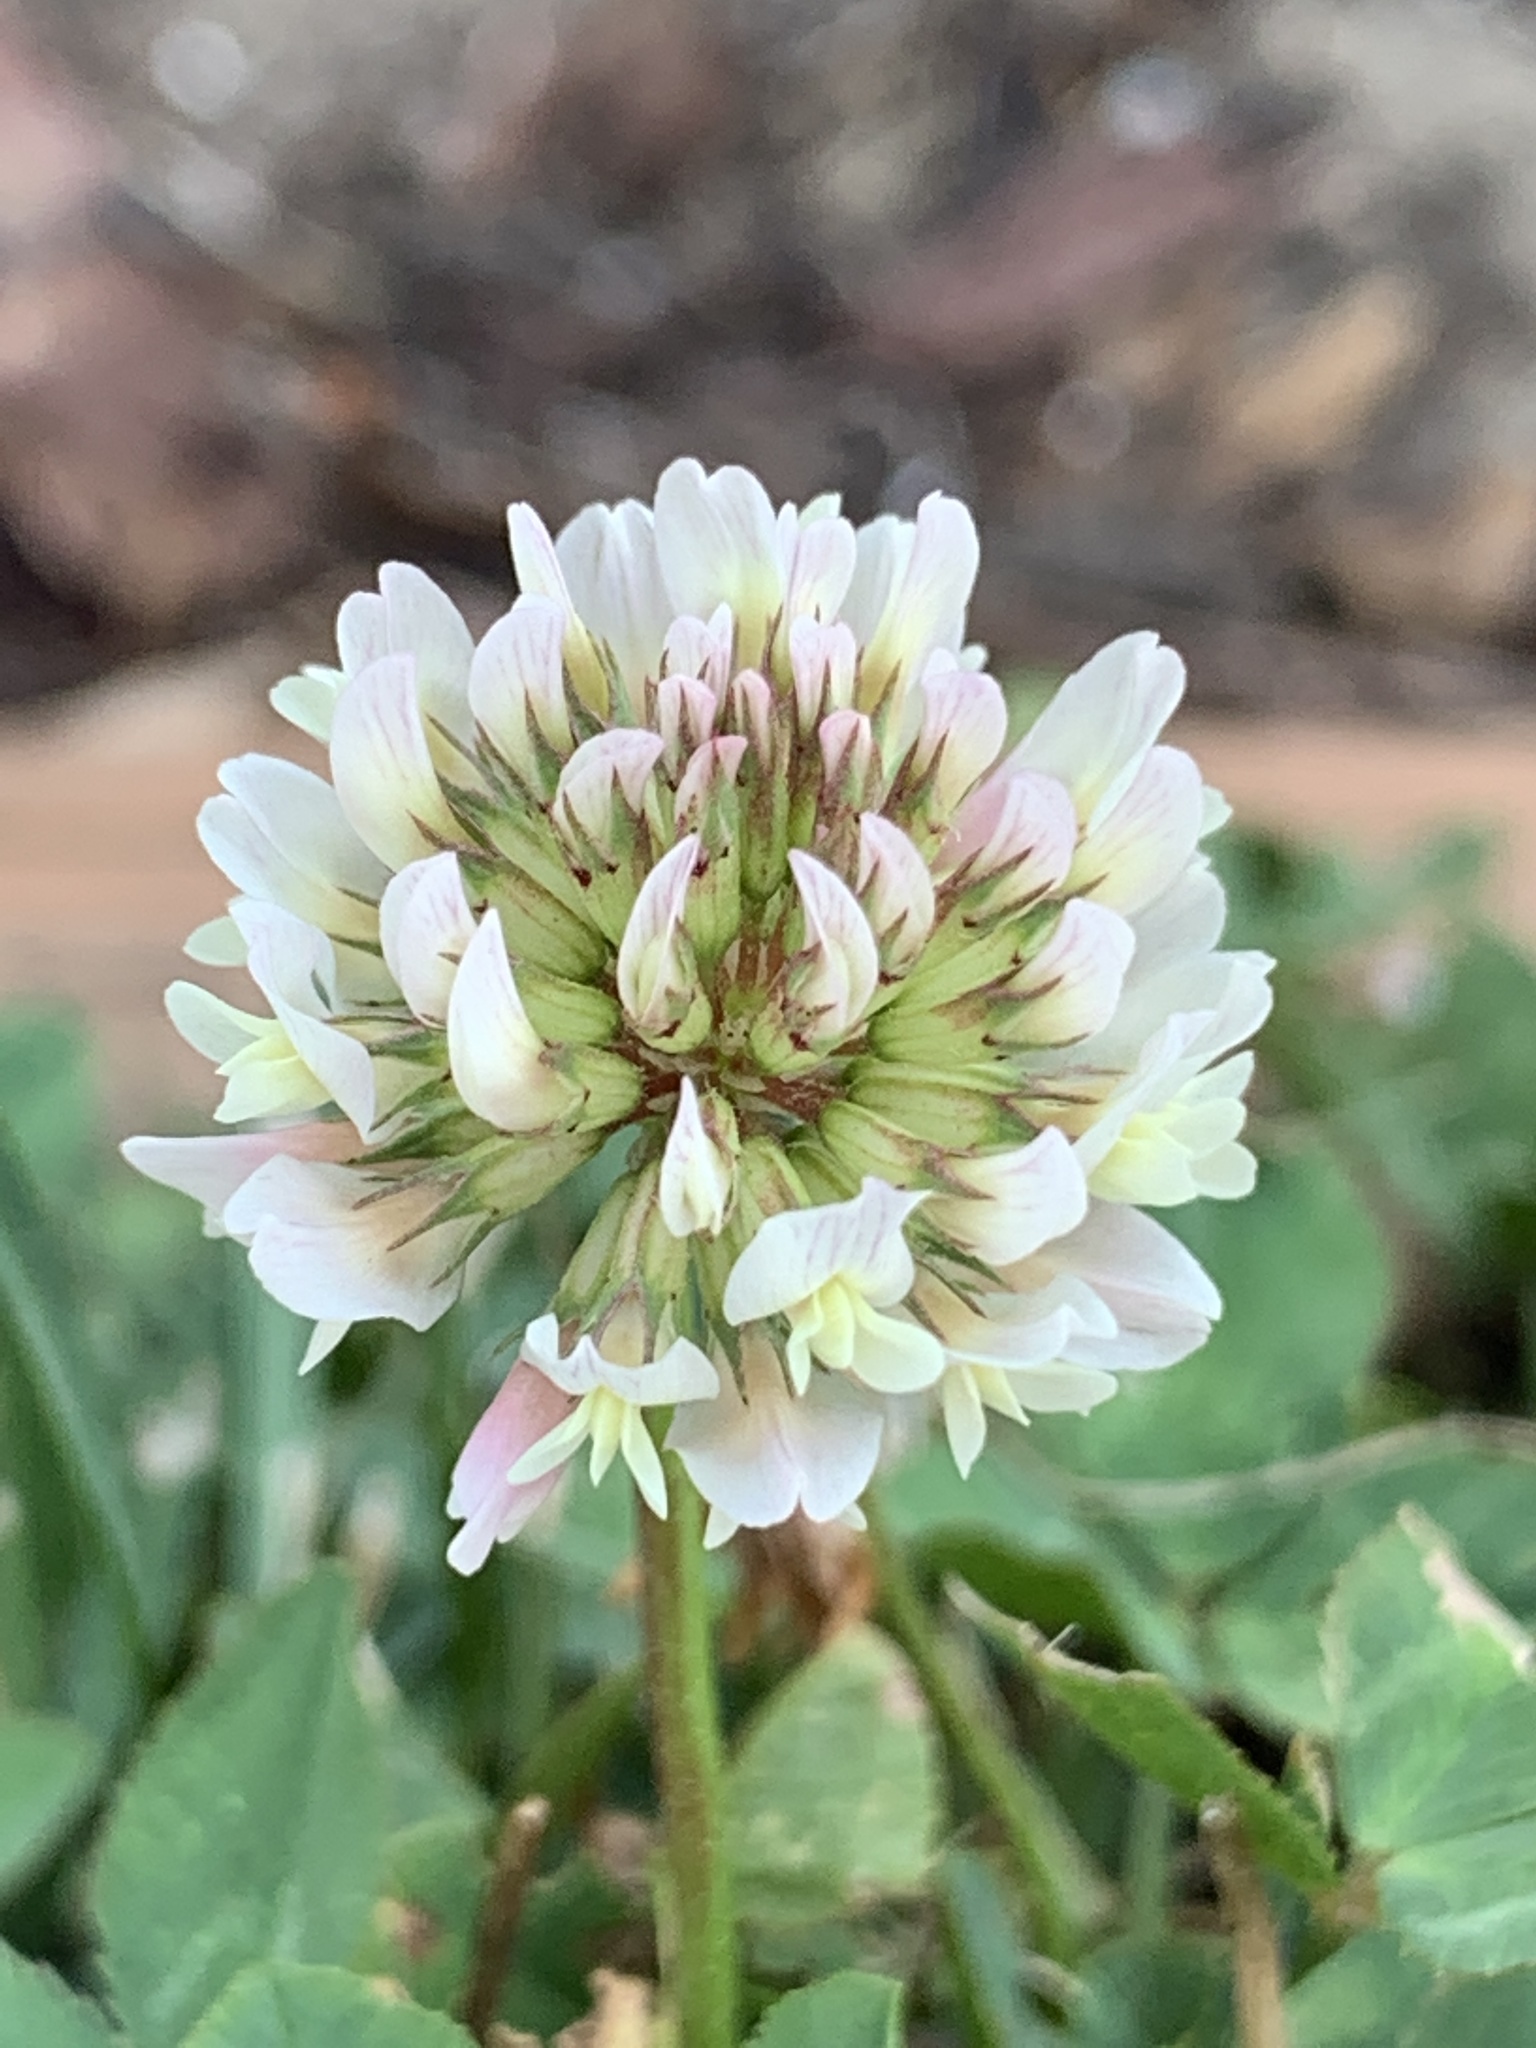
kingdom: Plantae
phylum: Tracheophyta
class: Magnoliopsida
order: Fabales
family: Fabaceae
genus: Trifolium
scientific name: Trifolium repens
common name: White clover
